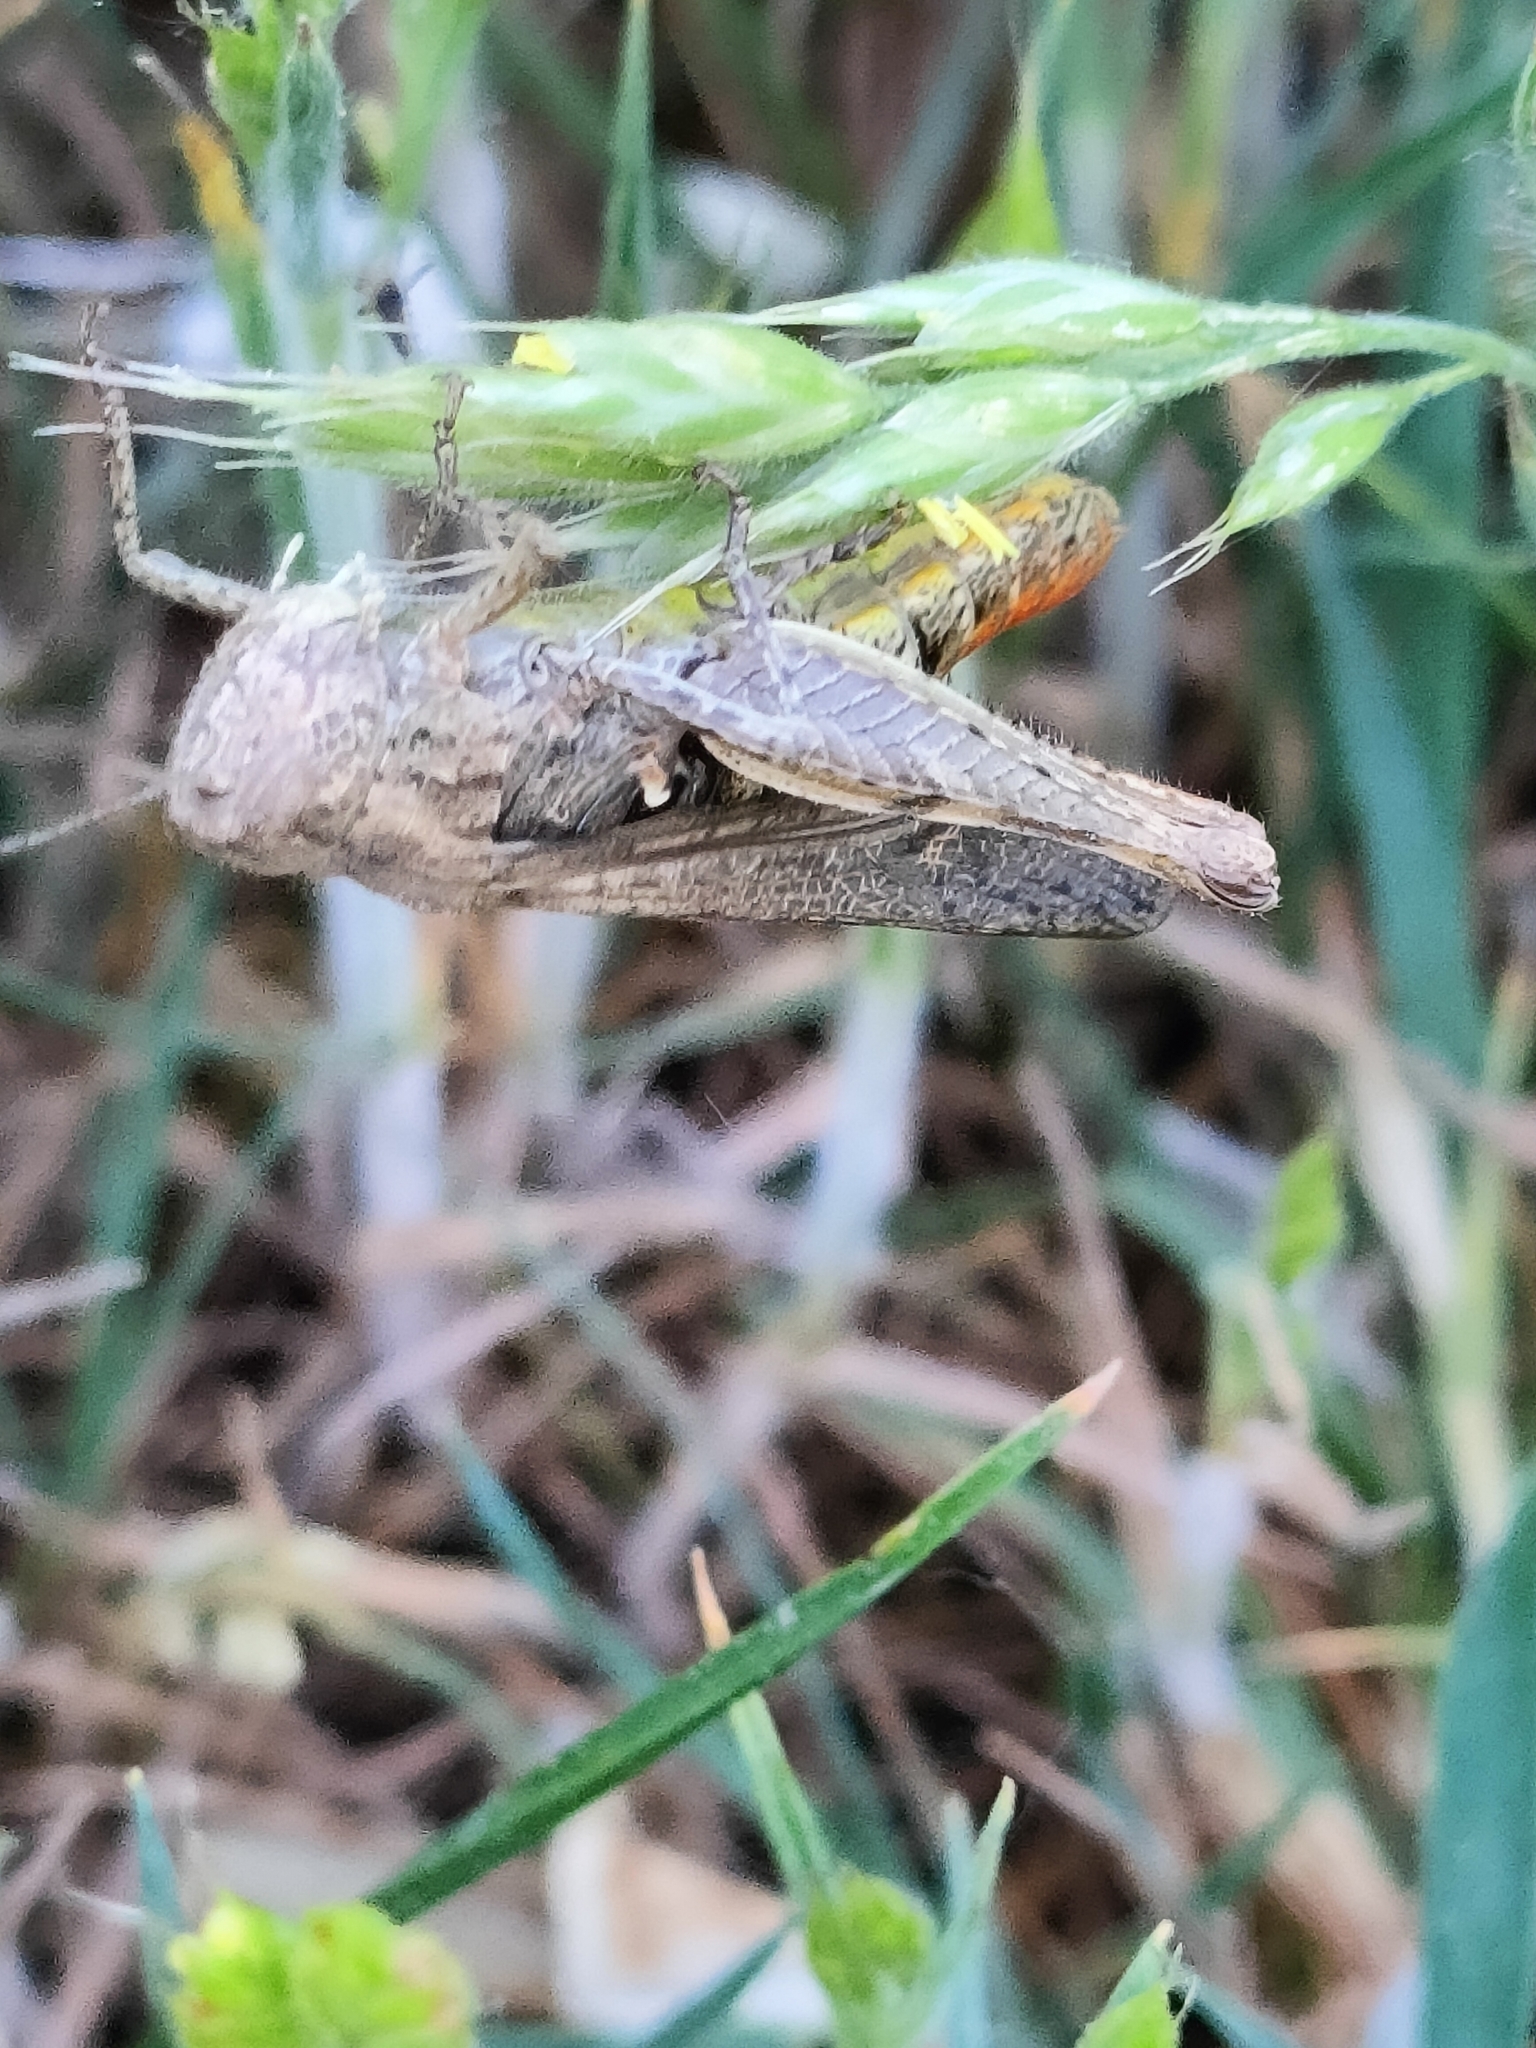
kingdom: Animalia
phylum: Arthropoda
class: Insecta
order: Orthoptera
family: Acrididae
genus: Chorthippus
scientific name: Chorthippus brunneus
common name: Field grasshopper
